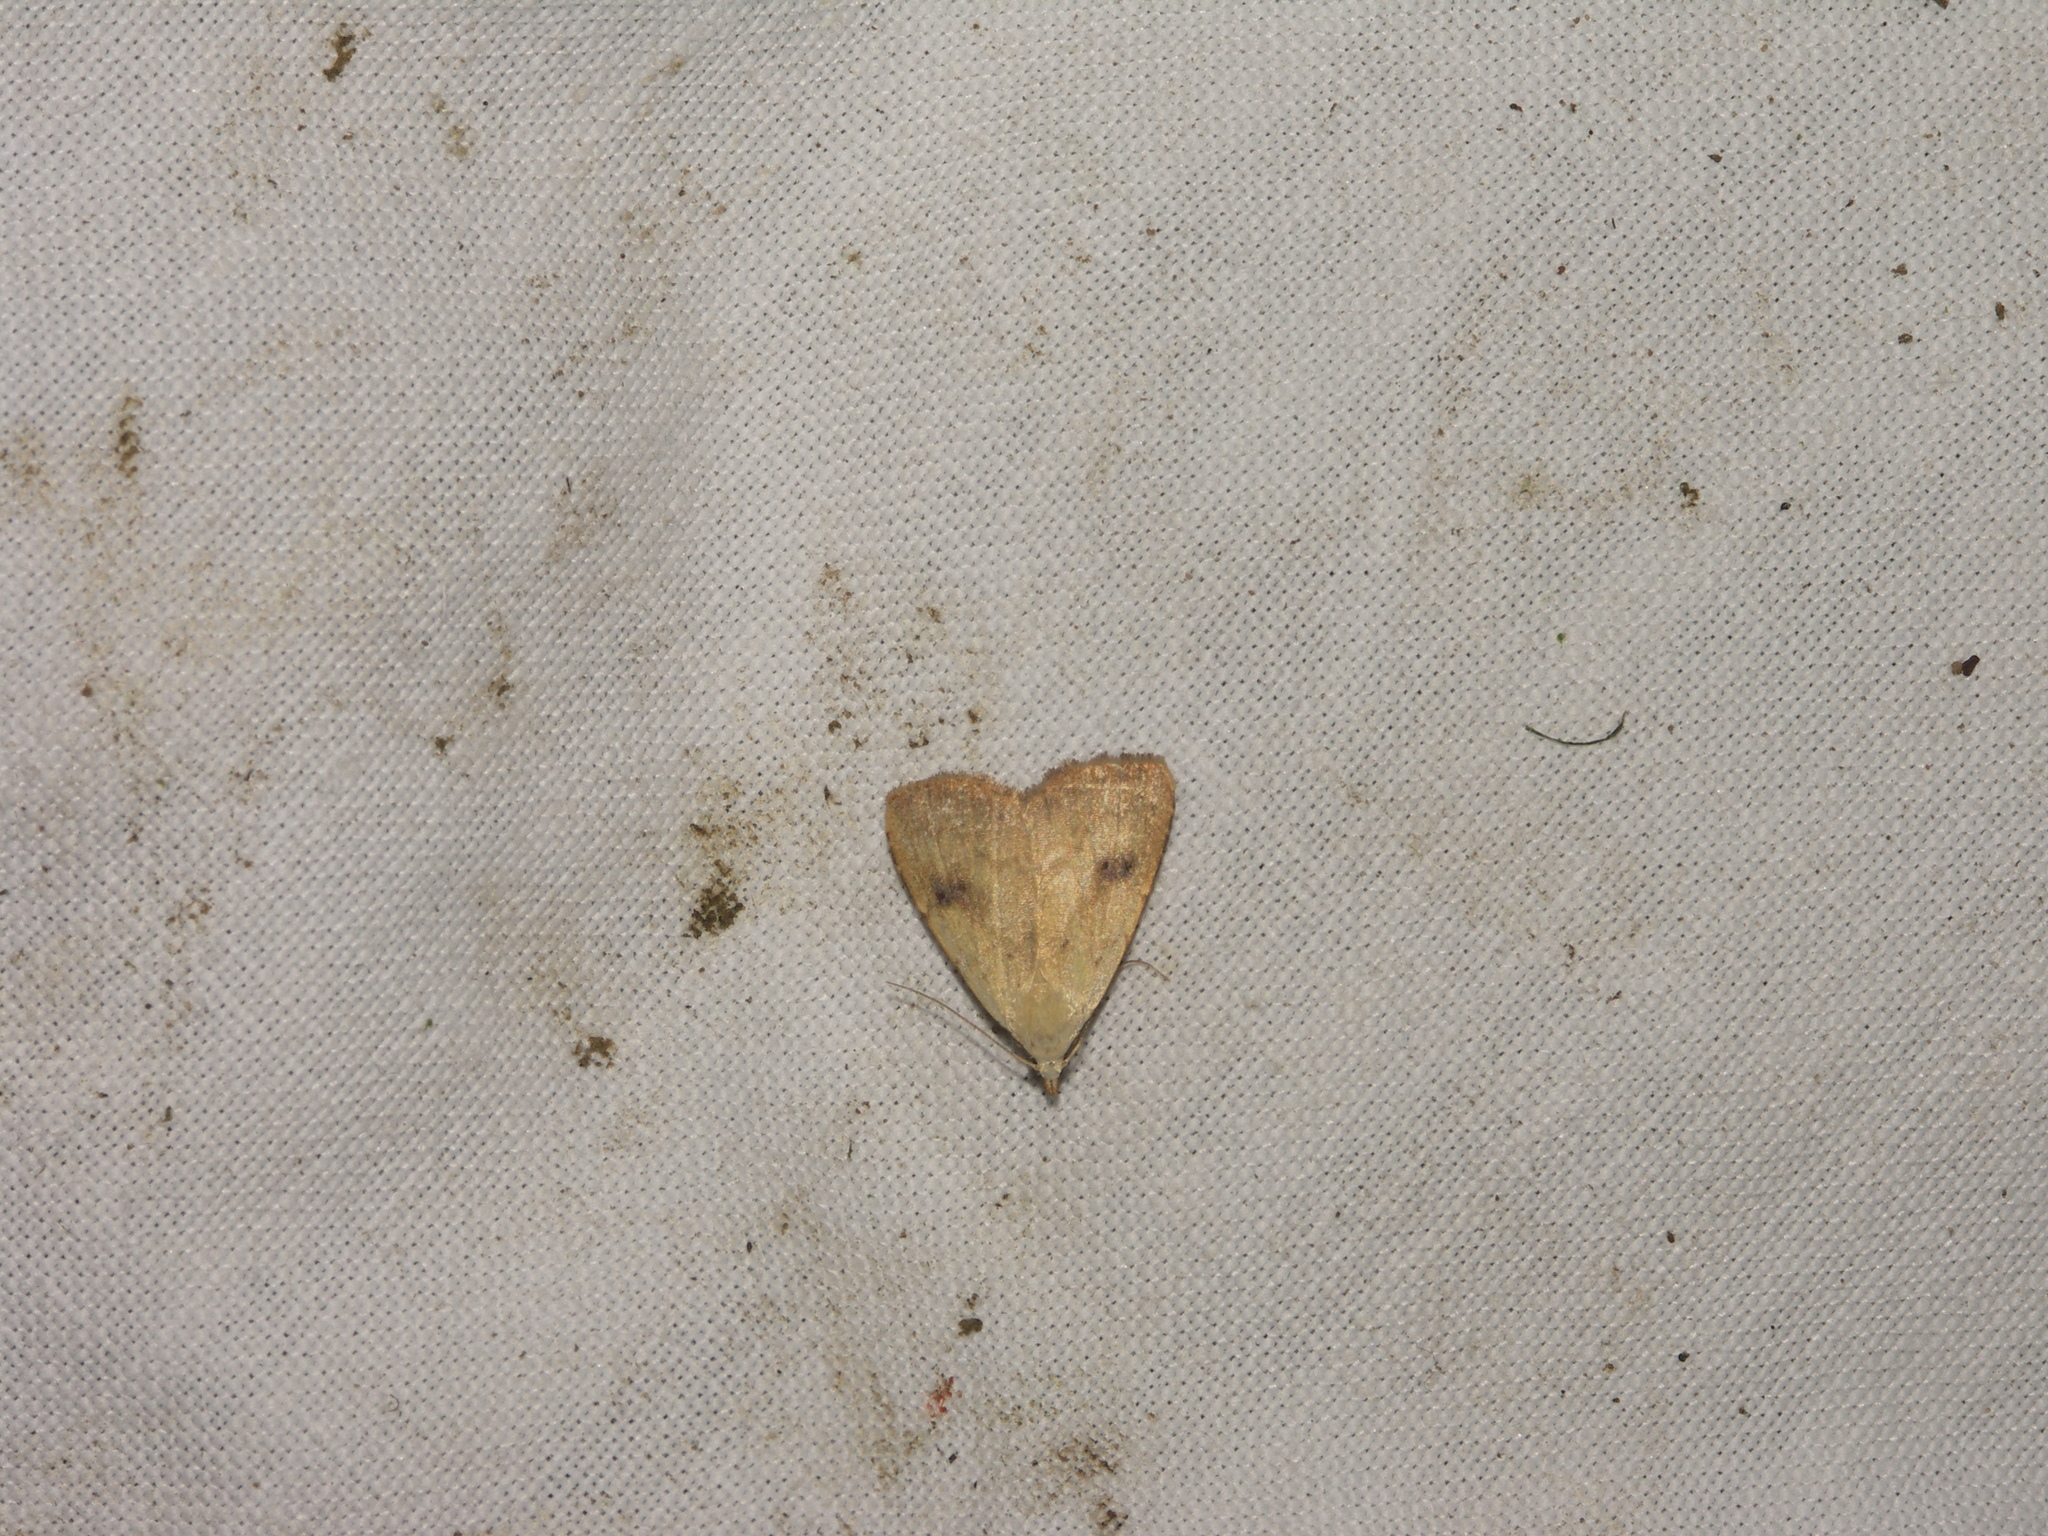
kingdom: Animalia
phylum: Arthropoda
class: Insecta
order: Lepidoptera
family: Erebidae
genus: Rivula
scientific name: Rivula sericealis
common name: Straw dot
